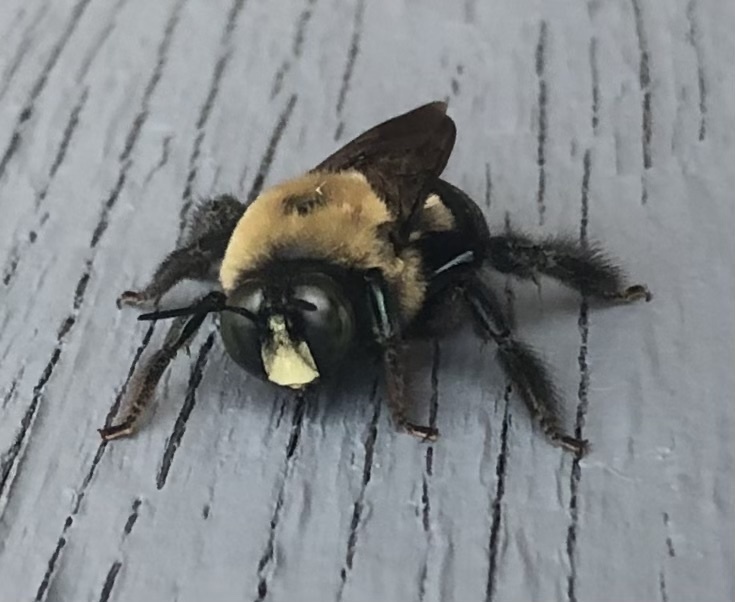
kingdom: Animalia
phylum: Arthropoda
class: Insecta
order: Hymenoptera
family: Apidae
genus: Xylocopa
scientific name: Xylocopa virginica
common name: Carpenter bee
